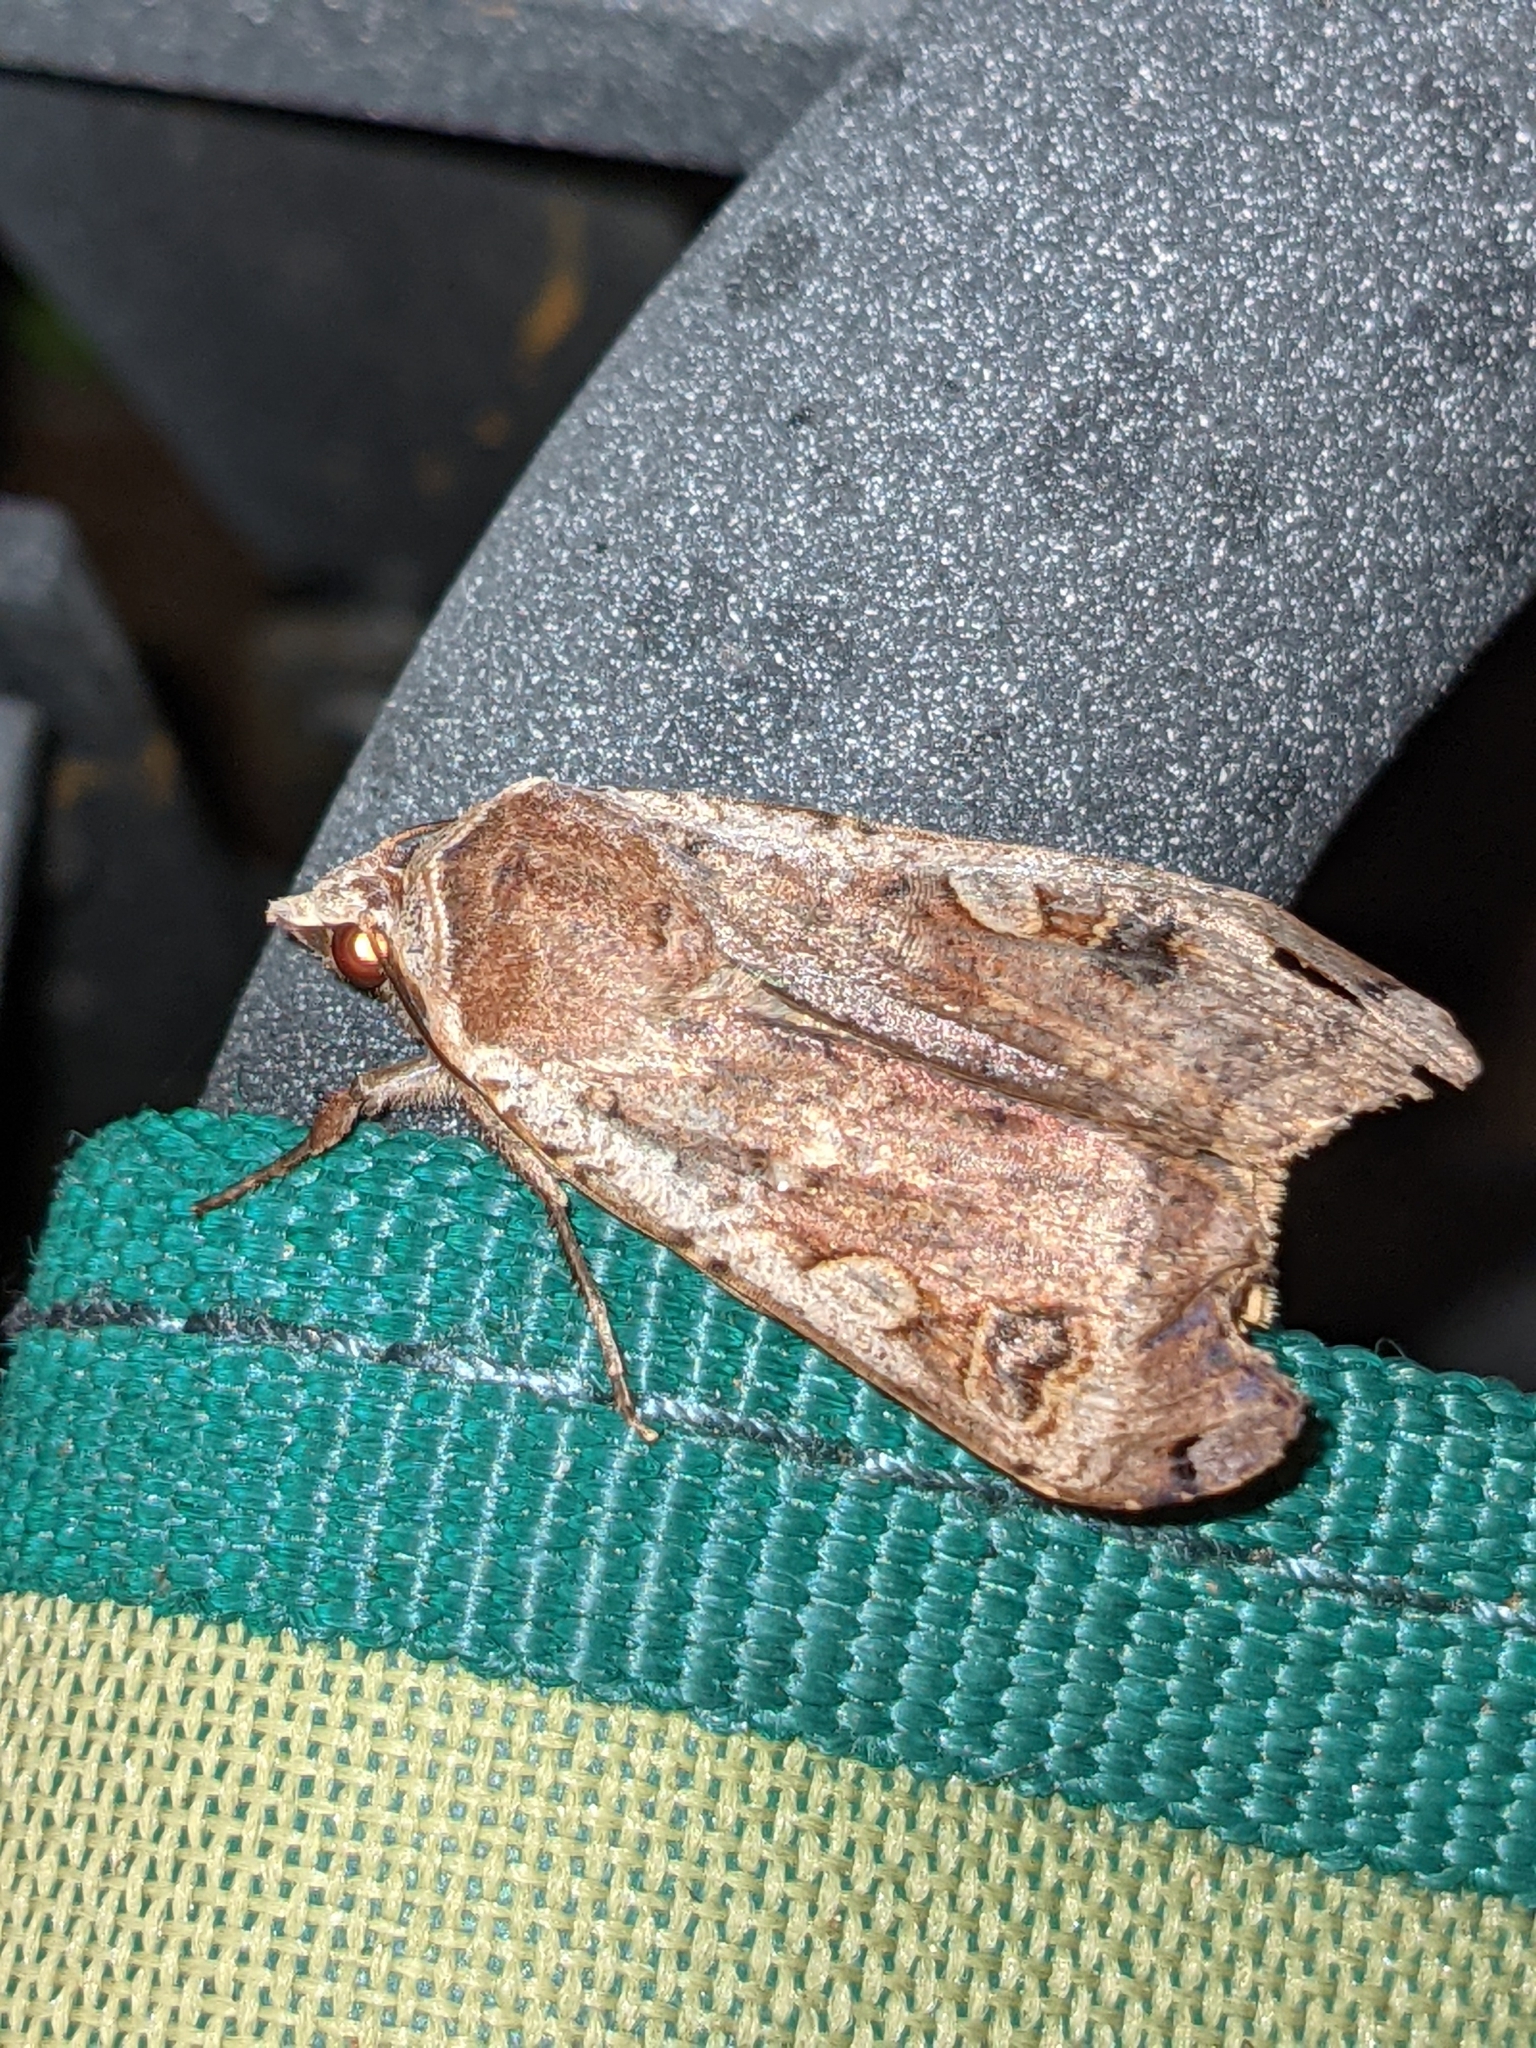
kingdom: Animalia
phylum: Arthropoda
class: Insecta
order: Lepidoptera
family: Noctuidae
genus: Noctua
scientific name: Noctua pronuba
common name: Large yellow underwing
